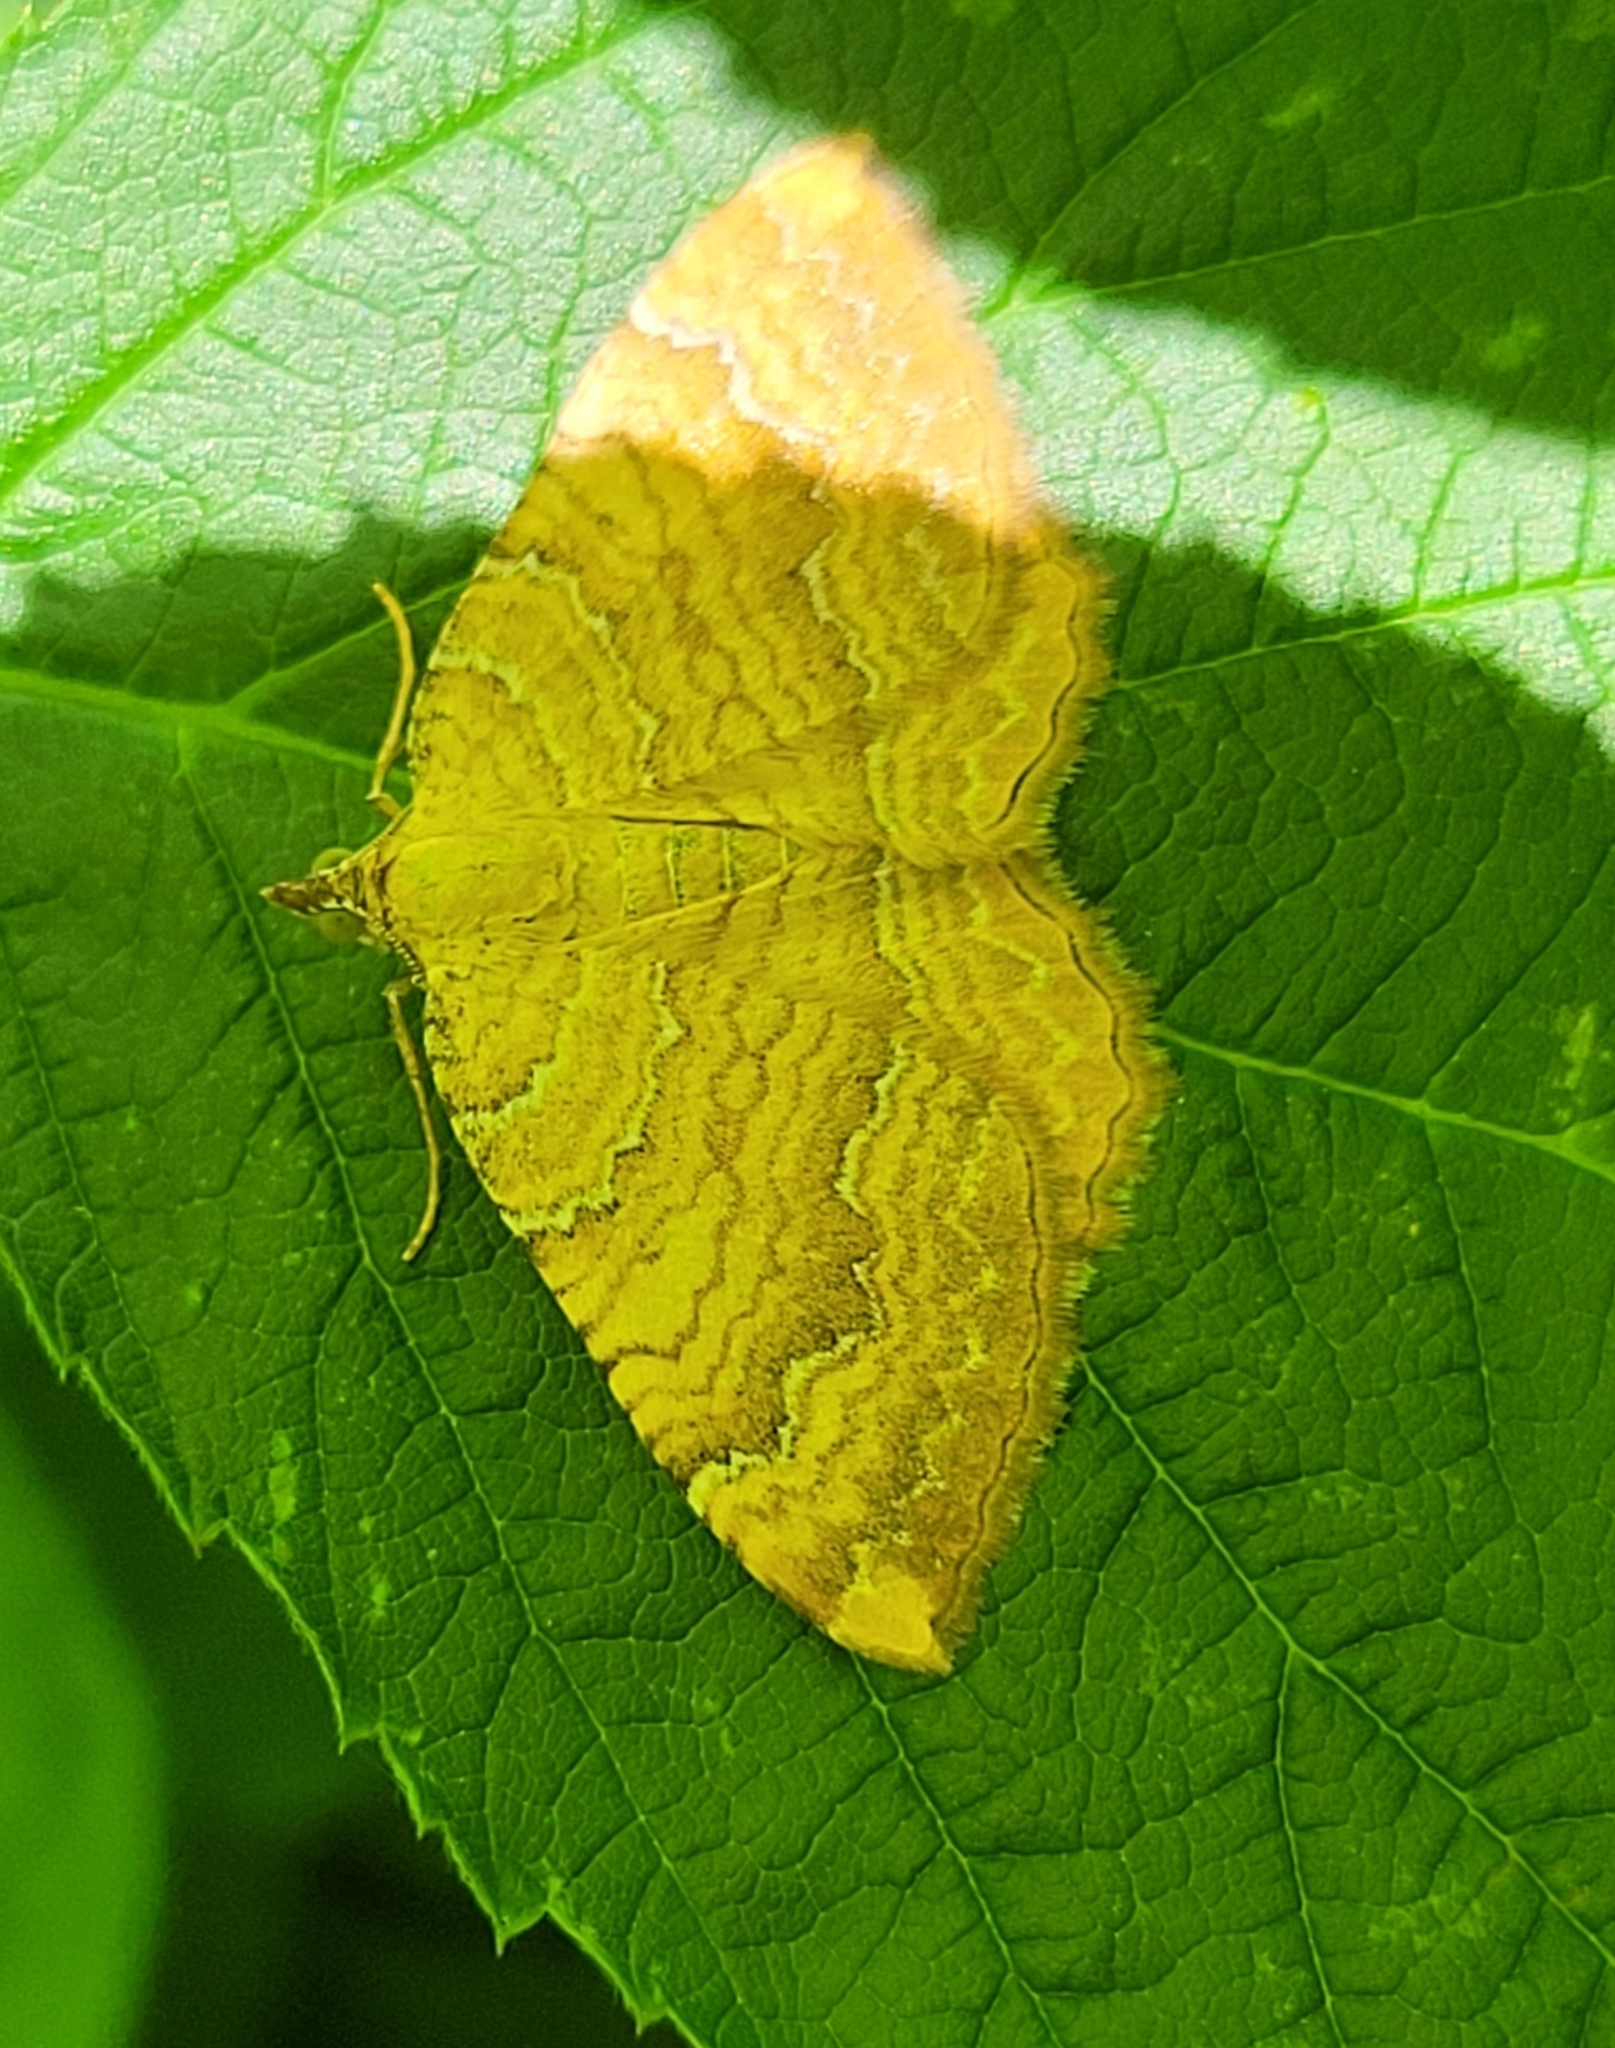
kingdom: Animalia
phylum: Arthropoda
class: Insecta
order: Lepidoptera
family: Geometridae
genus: Camptogramma
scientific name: Camptogramma bilineata
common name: Yellow shell
